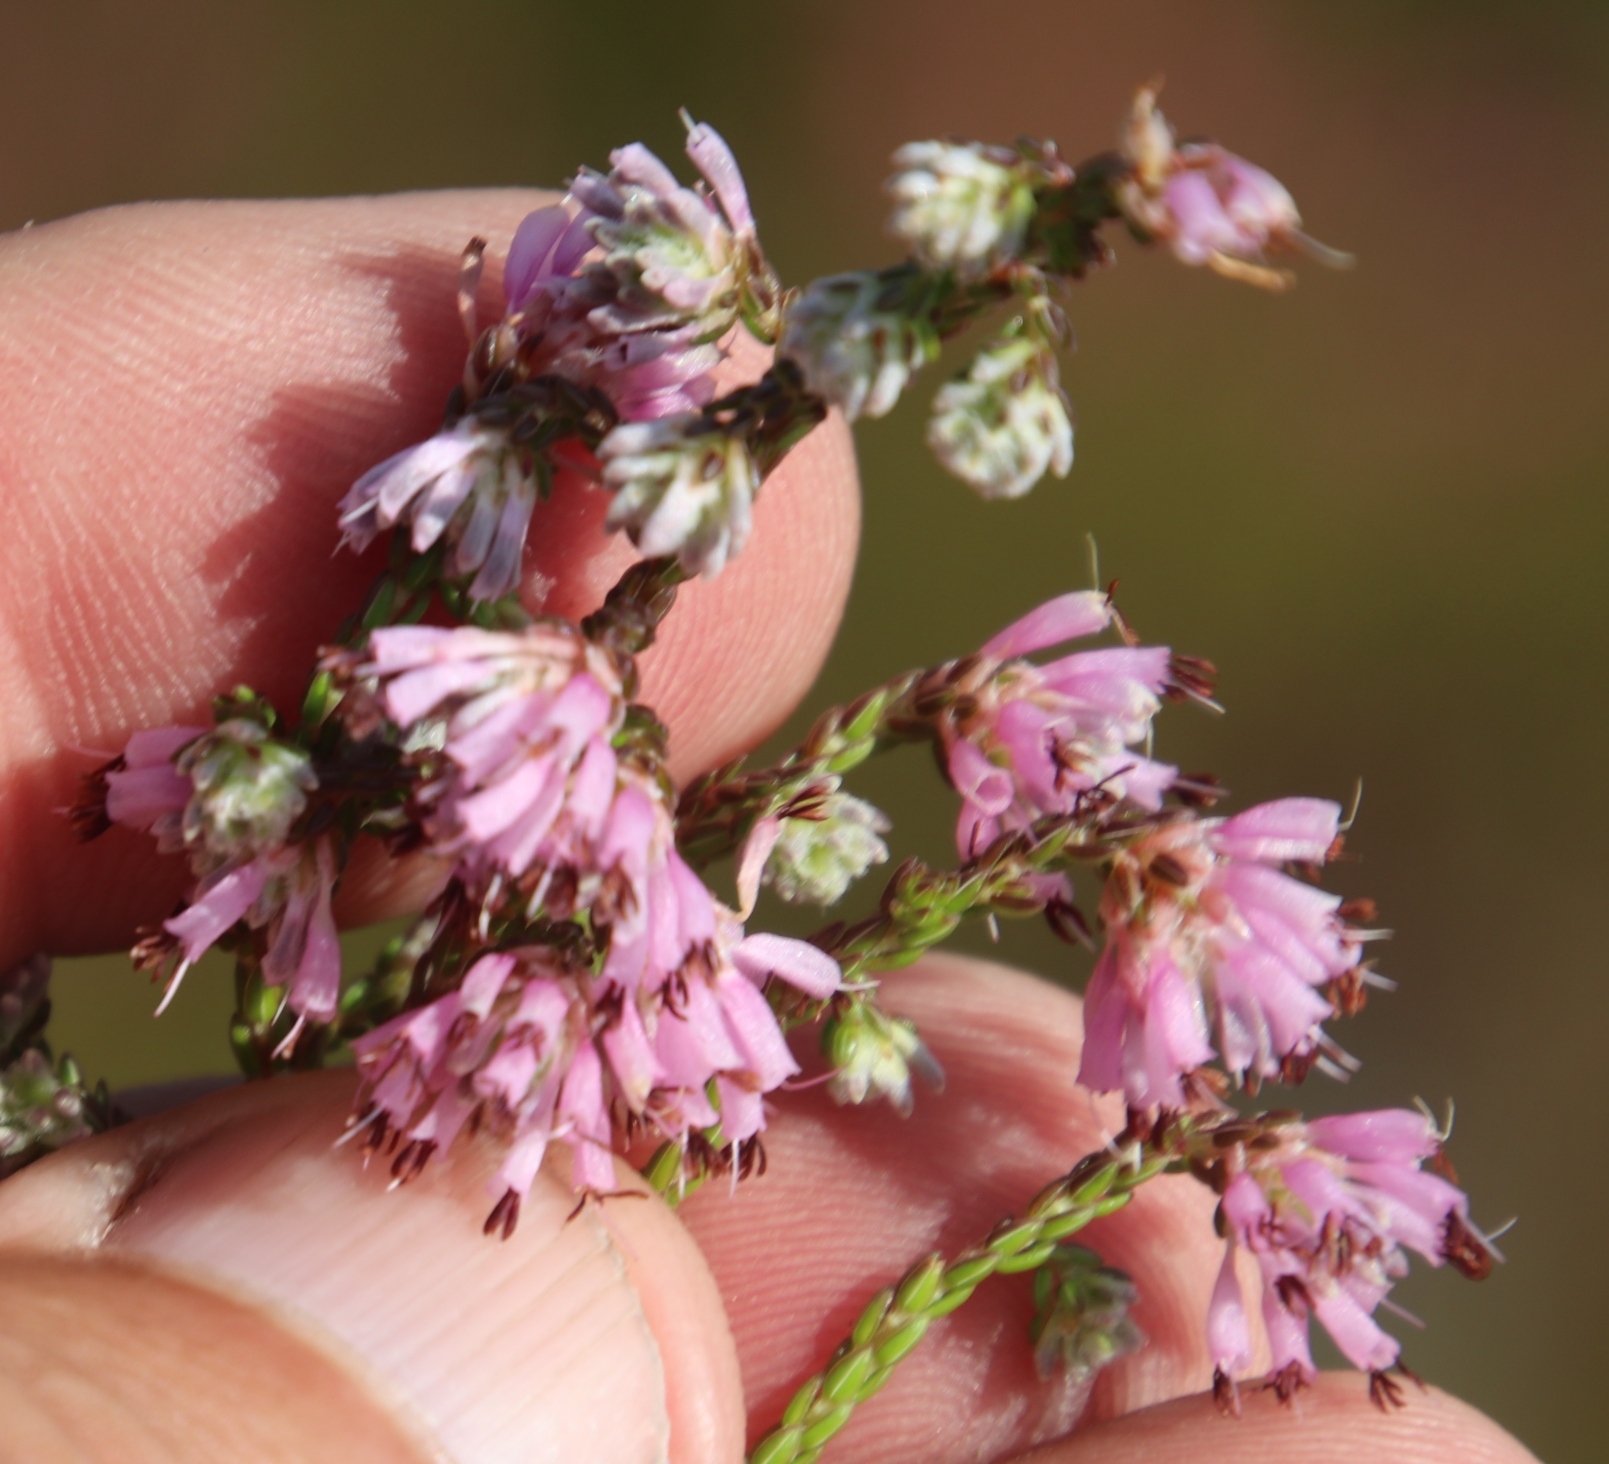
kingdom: Plantae
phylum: Tracheophyta
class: Magnoliopsida
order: Ericales
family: Ericaceae
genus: Erica
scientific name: Erica labialis
